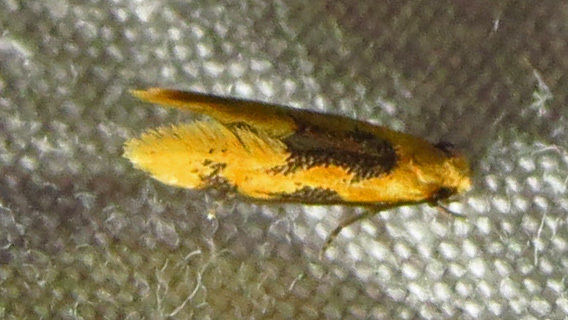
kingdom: Animalia
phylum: Arthropoda
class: Insecta
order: Lepidoptera
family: Meessiidae
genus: Hybroma
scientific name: Hybroma servulella
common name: Yellow wave moth
